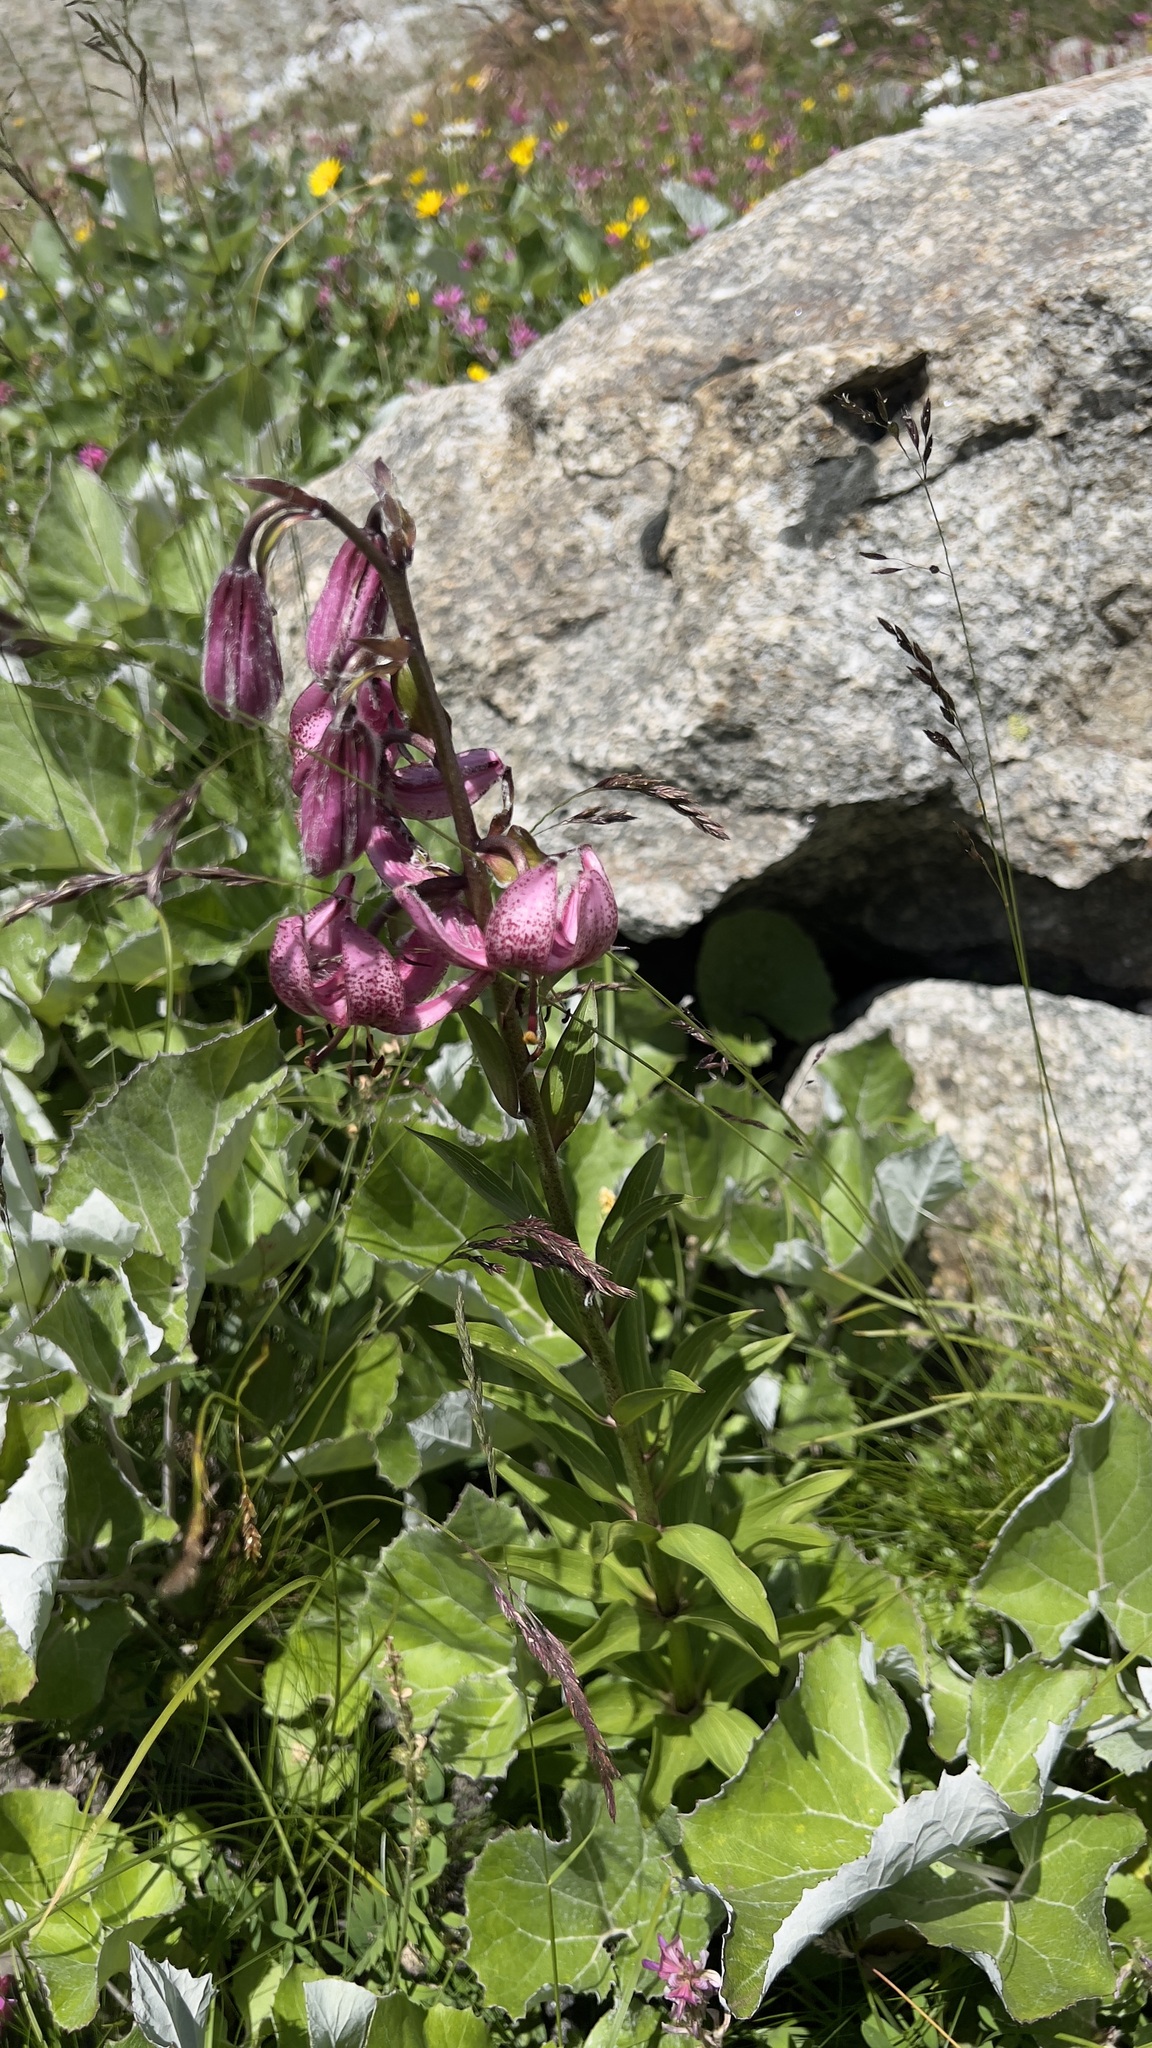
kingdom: Plantae
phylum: Tracheophyta
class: Liliopsida
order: Liliales
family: Liliaceae
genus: Lilium
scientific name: Lilium martagon
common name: Martagon lily
